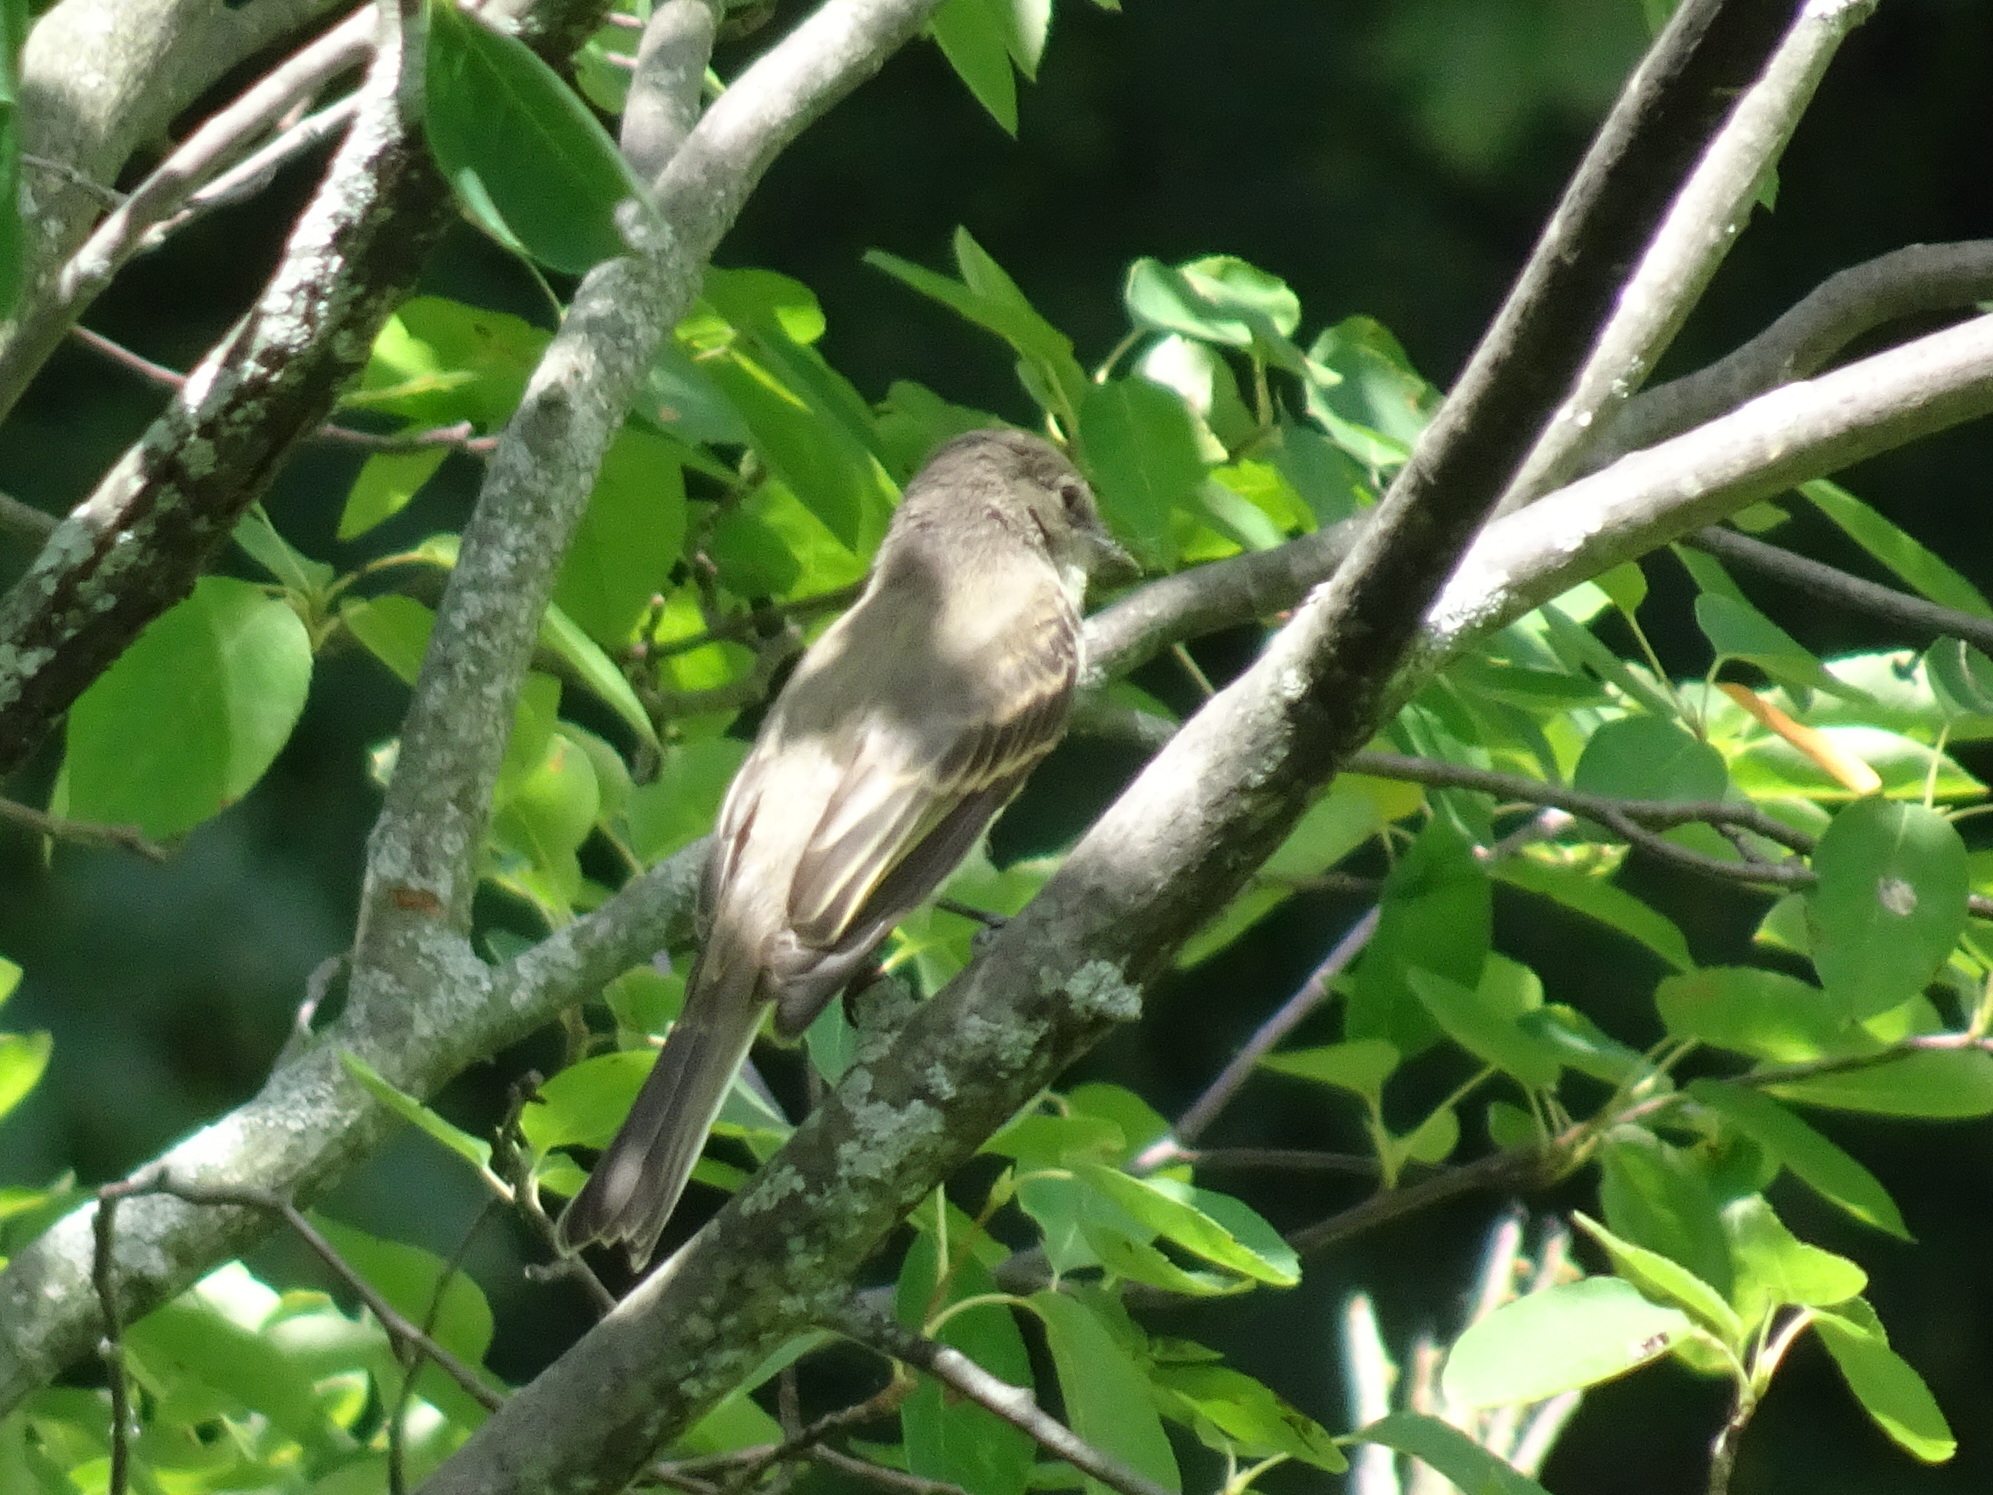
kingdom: Animalia
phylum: Chordata
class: Aves
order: Passeriformes
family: Tyrannidae
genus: Sayornis
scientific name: Sayornis phoebe
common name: Eastern phoebe
